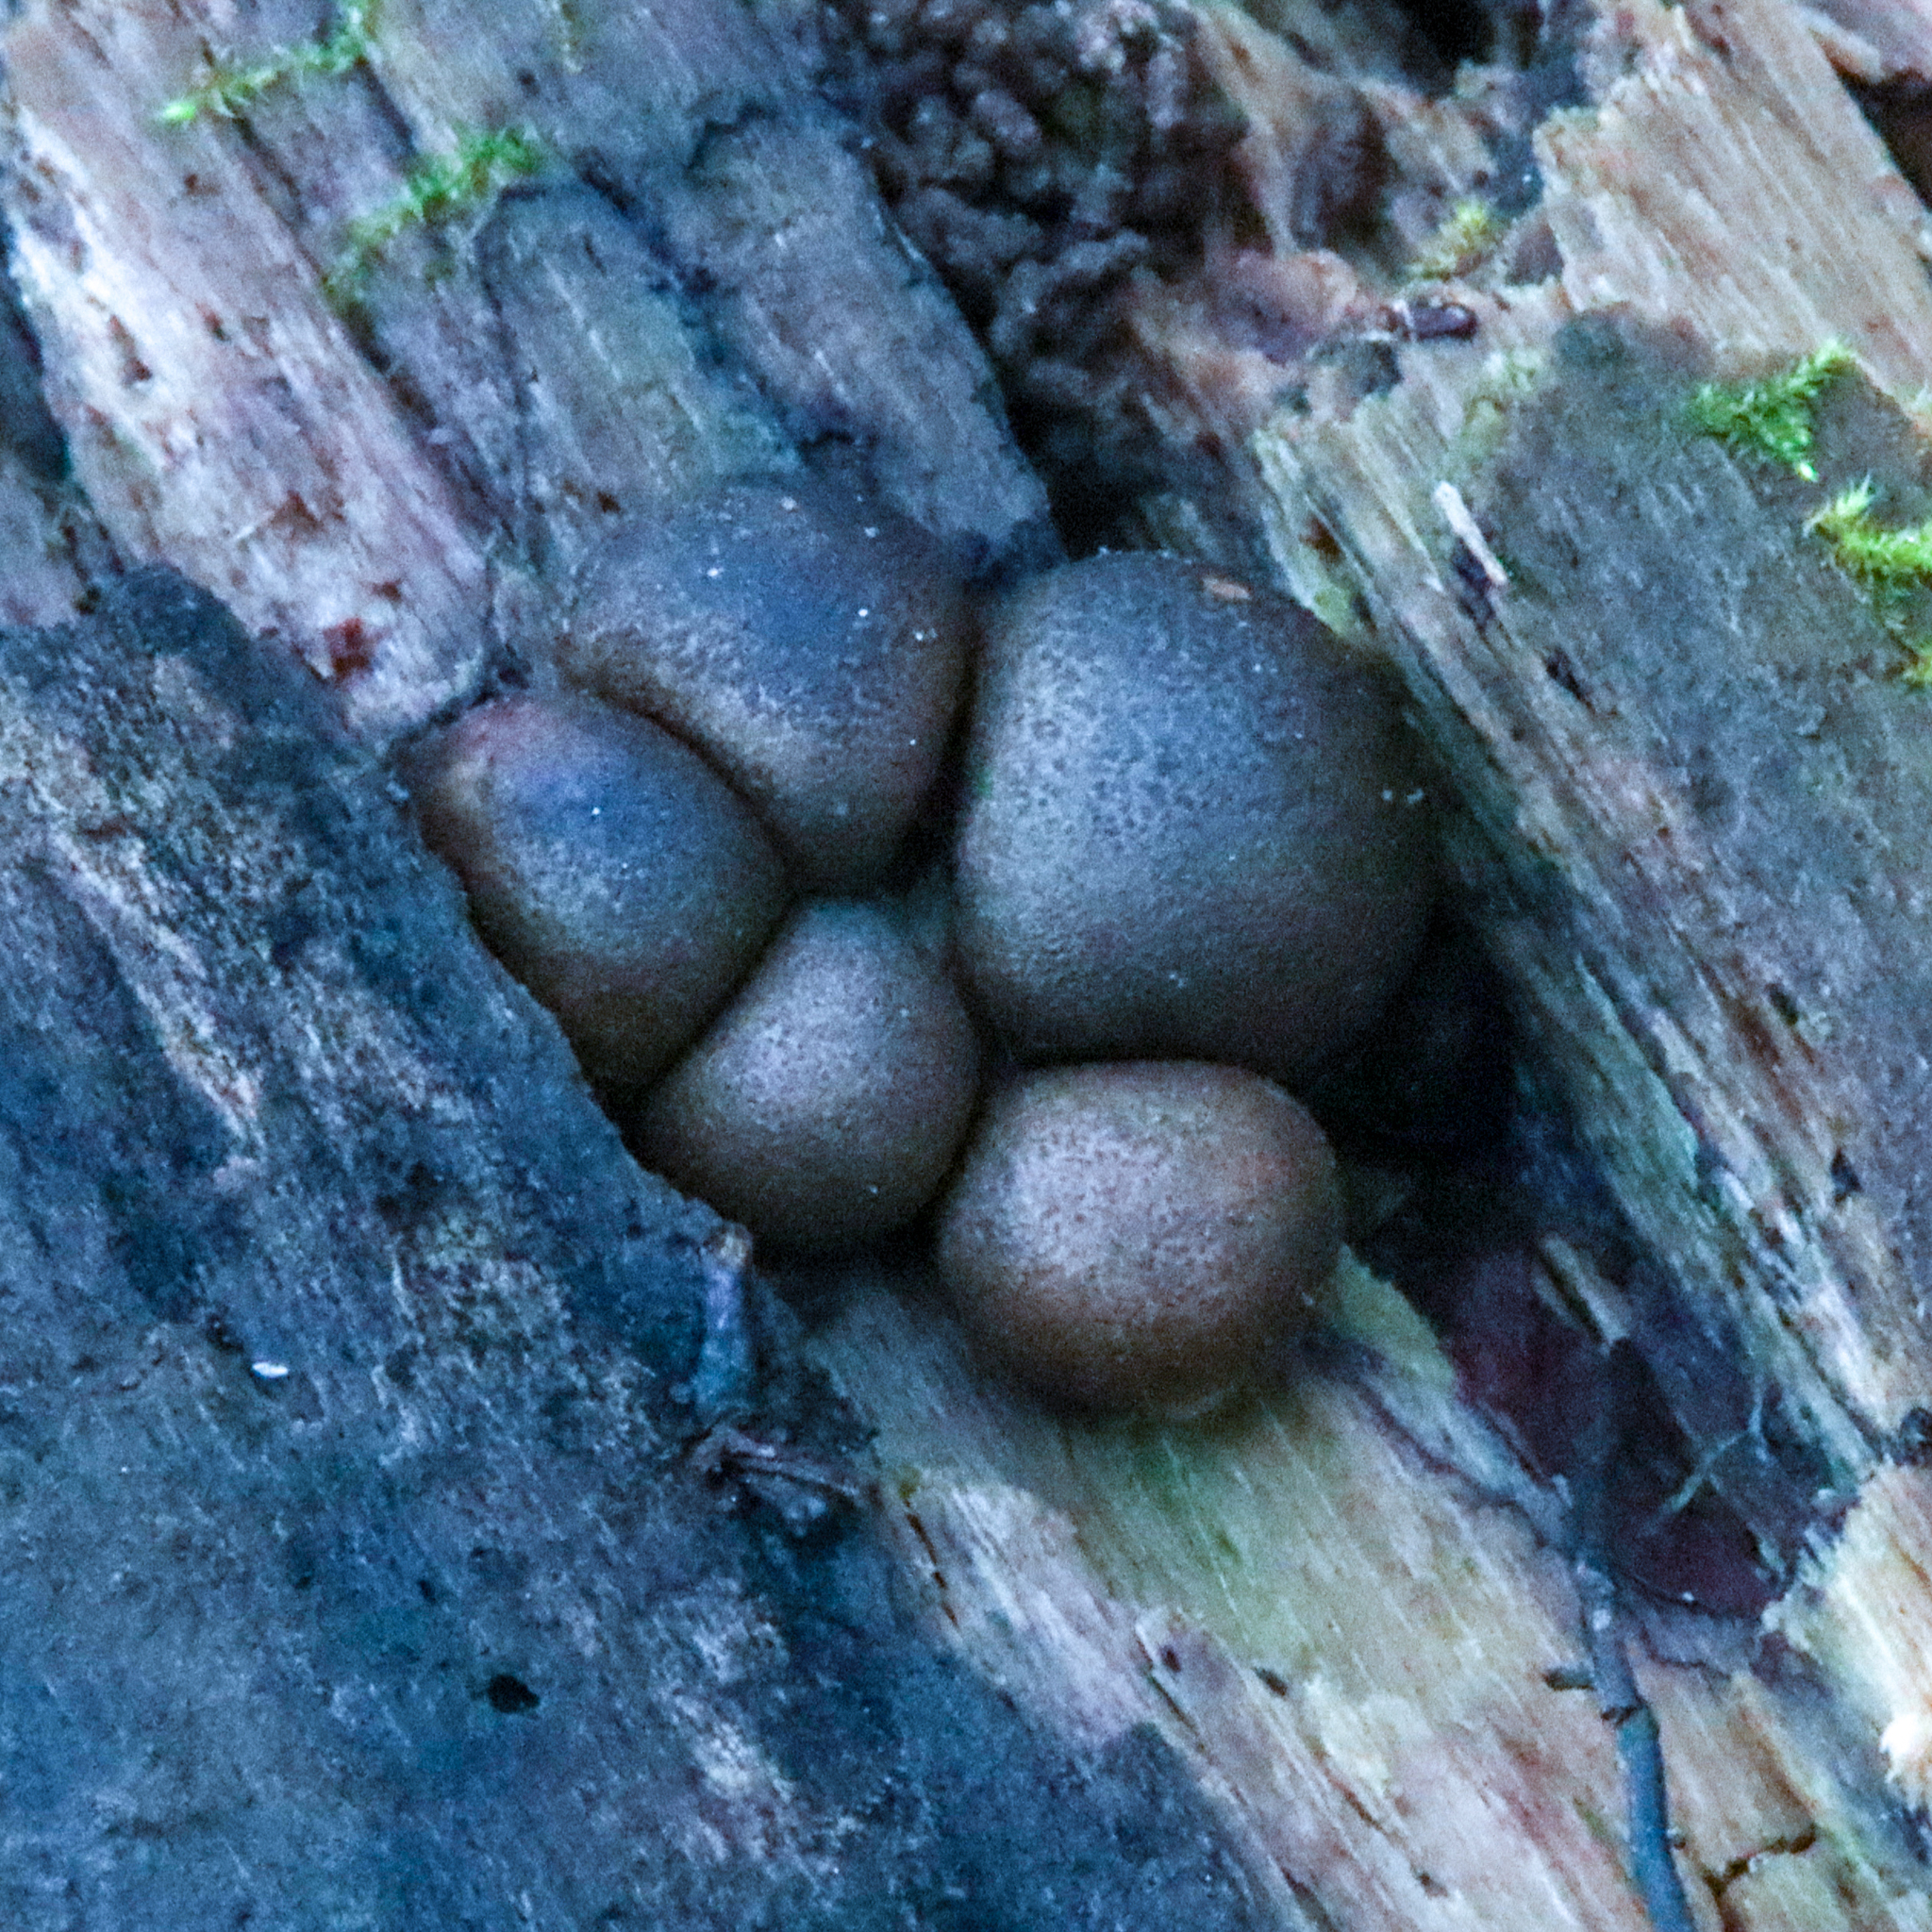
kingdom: Protozoa
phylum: Mycetozoa
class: Myxomycetes
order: Cribrariales
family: Tubiferaceae
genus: Lycogala
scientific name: Lycogala epidendrum
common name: Wolf's milk
